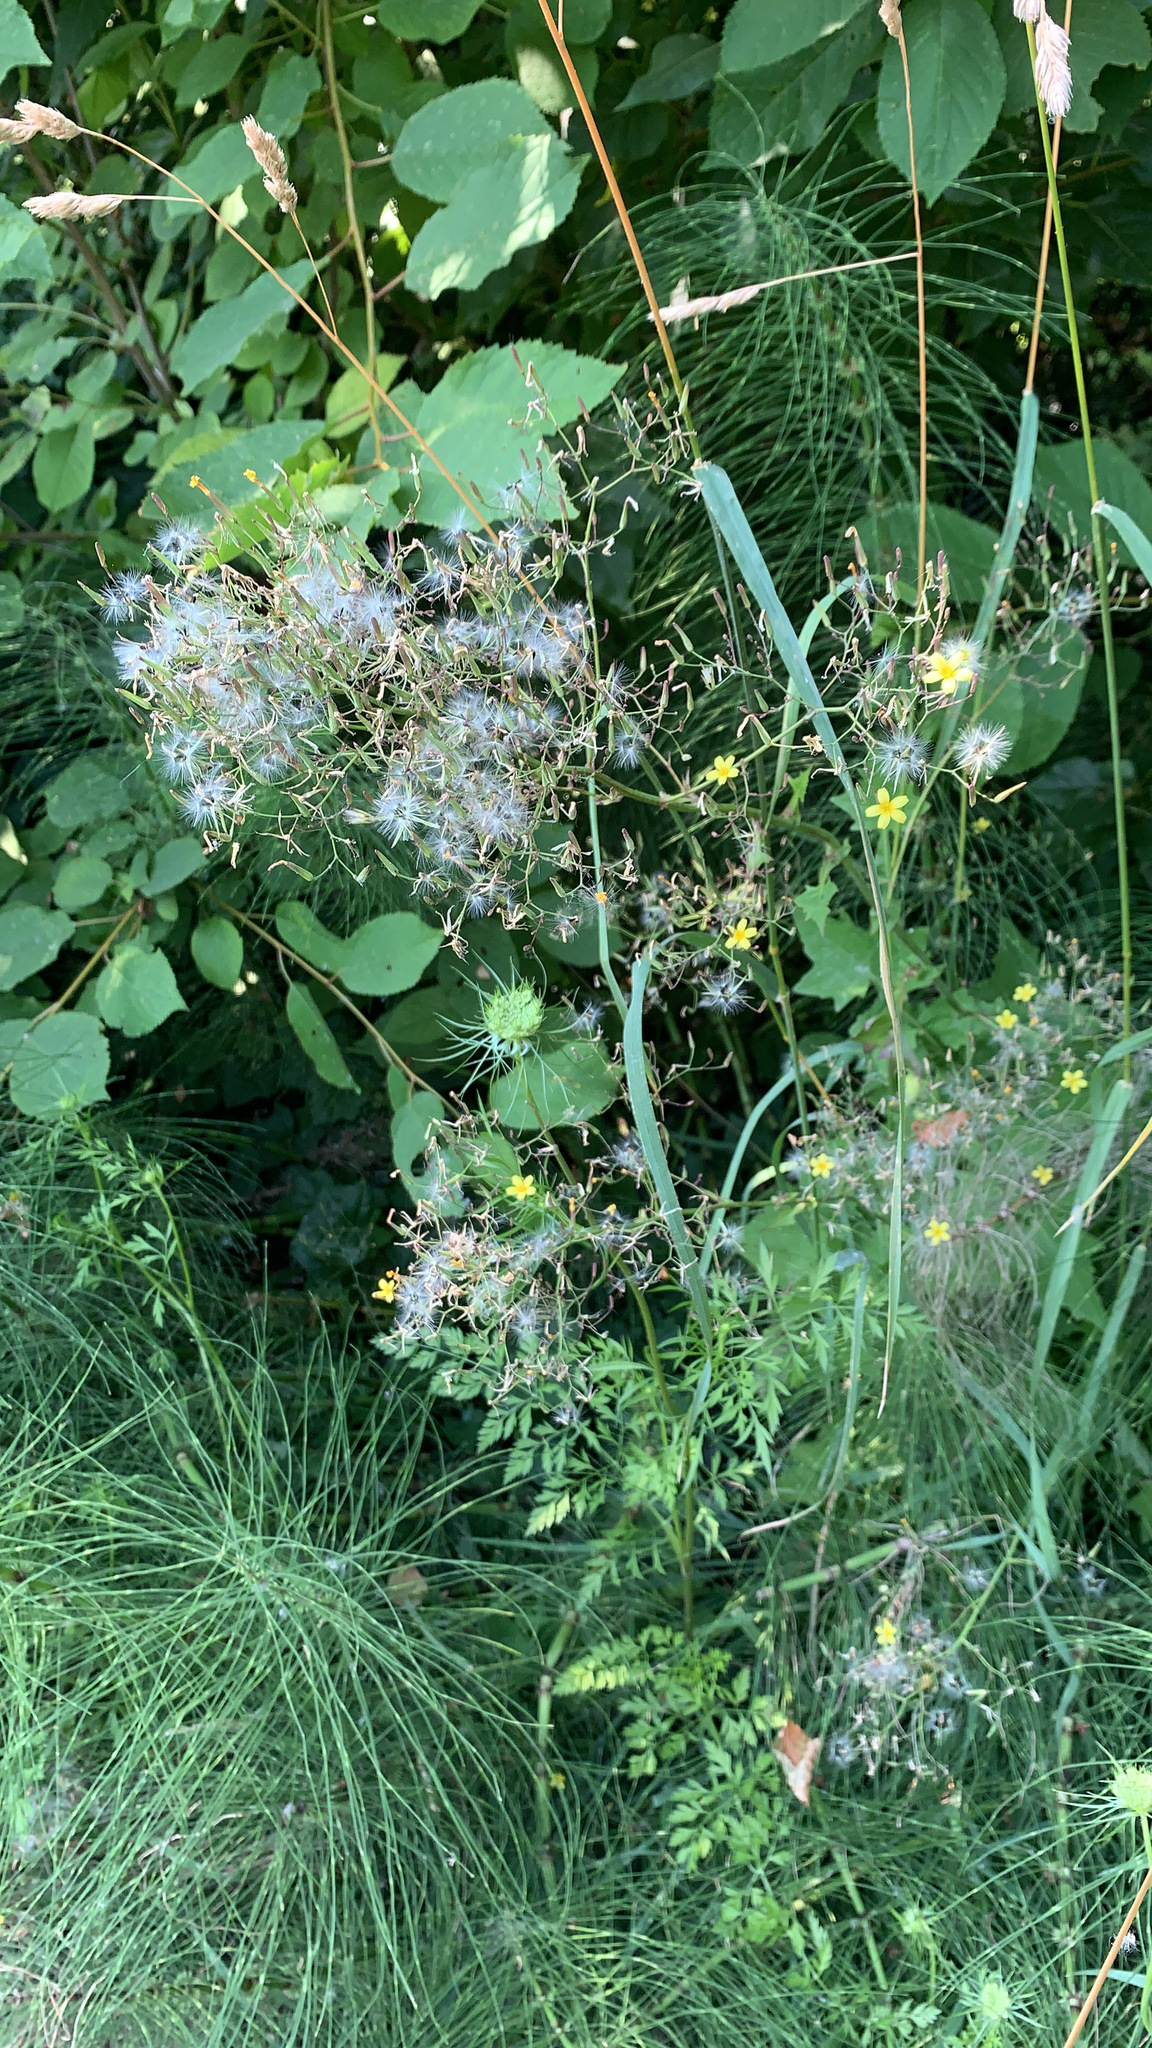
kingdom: Plantae
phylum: Tracheophyta
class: Magnoliopsida
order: Asterales
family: Asteraceae
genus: Mycelis
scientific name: Mycelis muralis
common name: Wall lettuce
